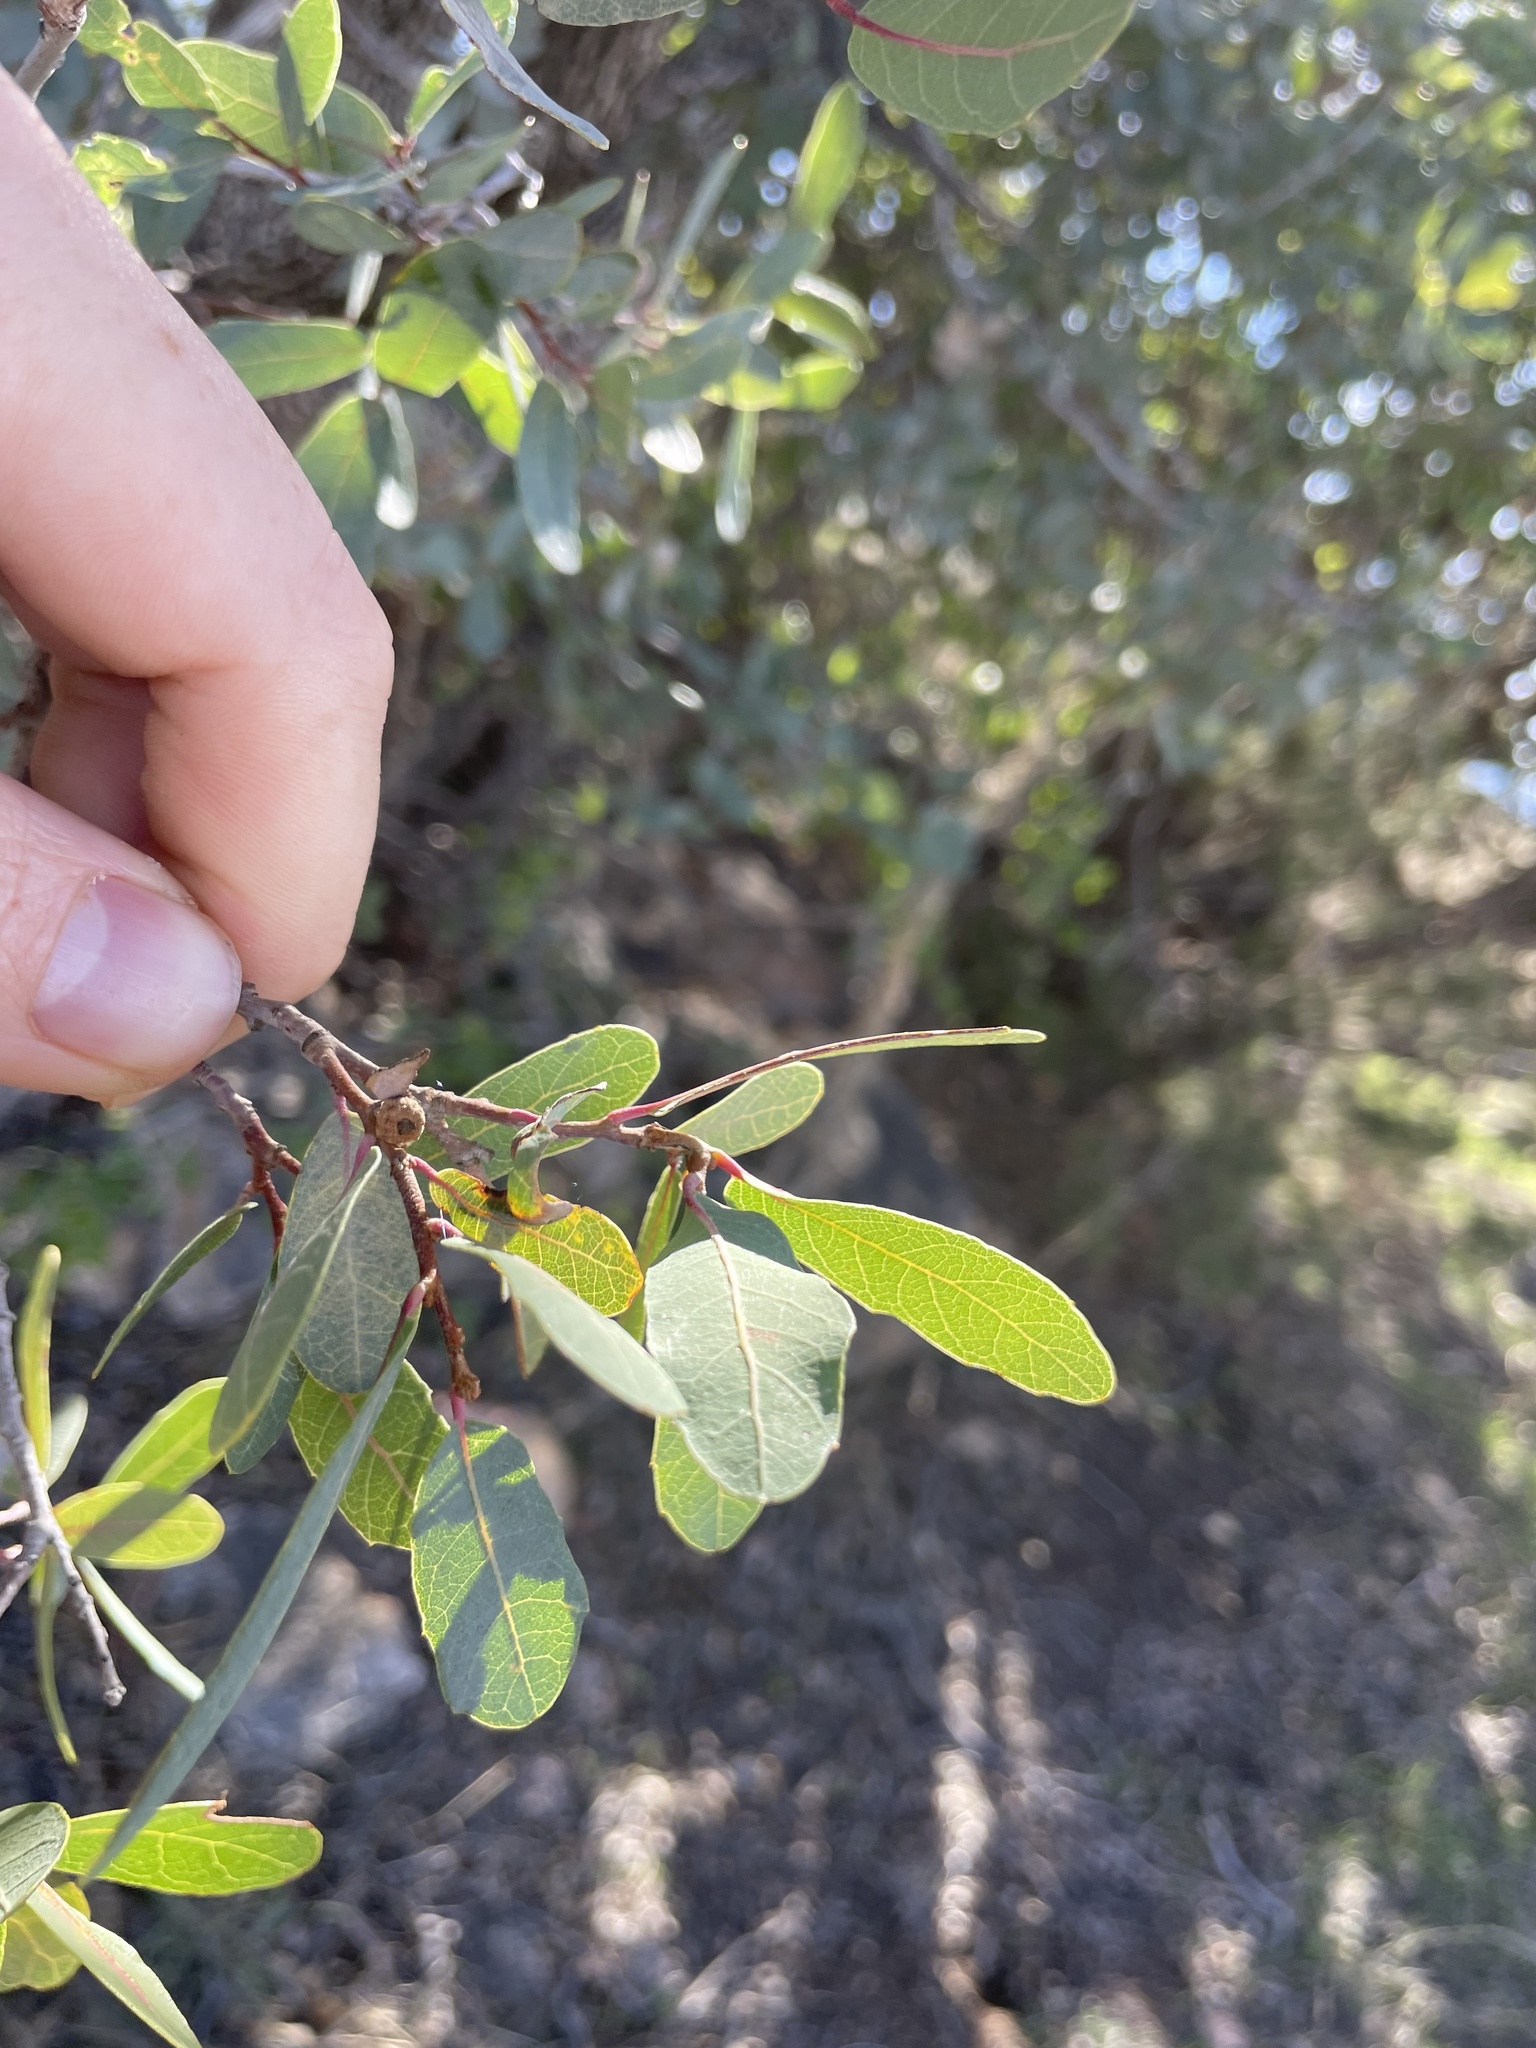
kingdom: Plantae
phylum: Tracheophyta
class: Magnoliopsida
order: Fagales
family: Fagaceae
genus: Quercus
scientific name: Quercus oblongifolia
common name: Mexican blue oak
